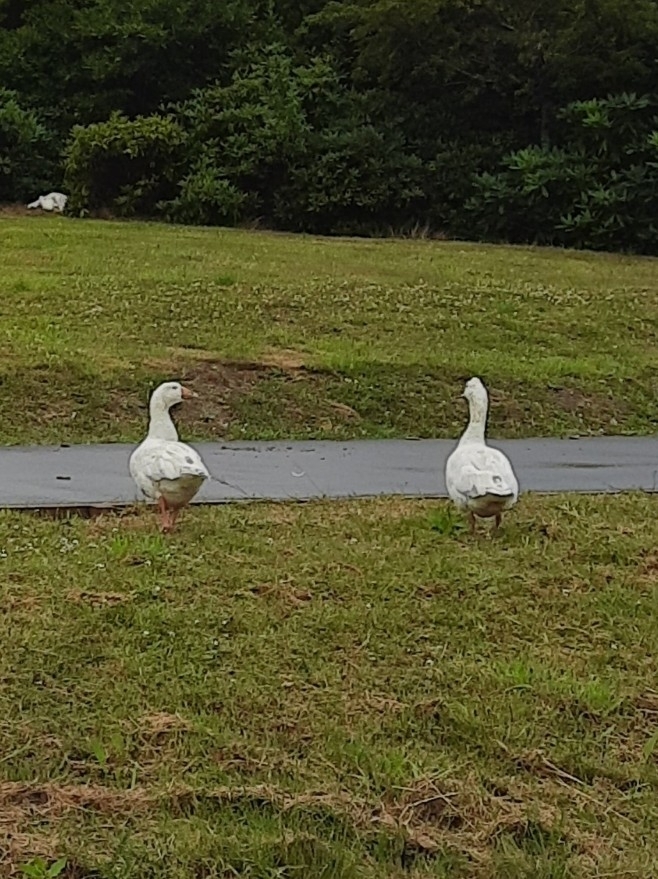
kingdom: Animalia
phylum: Chordata
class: Aves
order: Anseriformes
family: Anatidae
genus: Anser
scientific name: Anser anser
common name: Greylag goose
